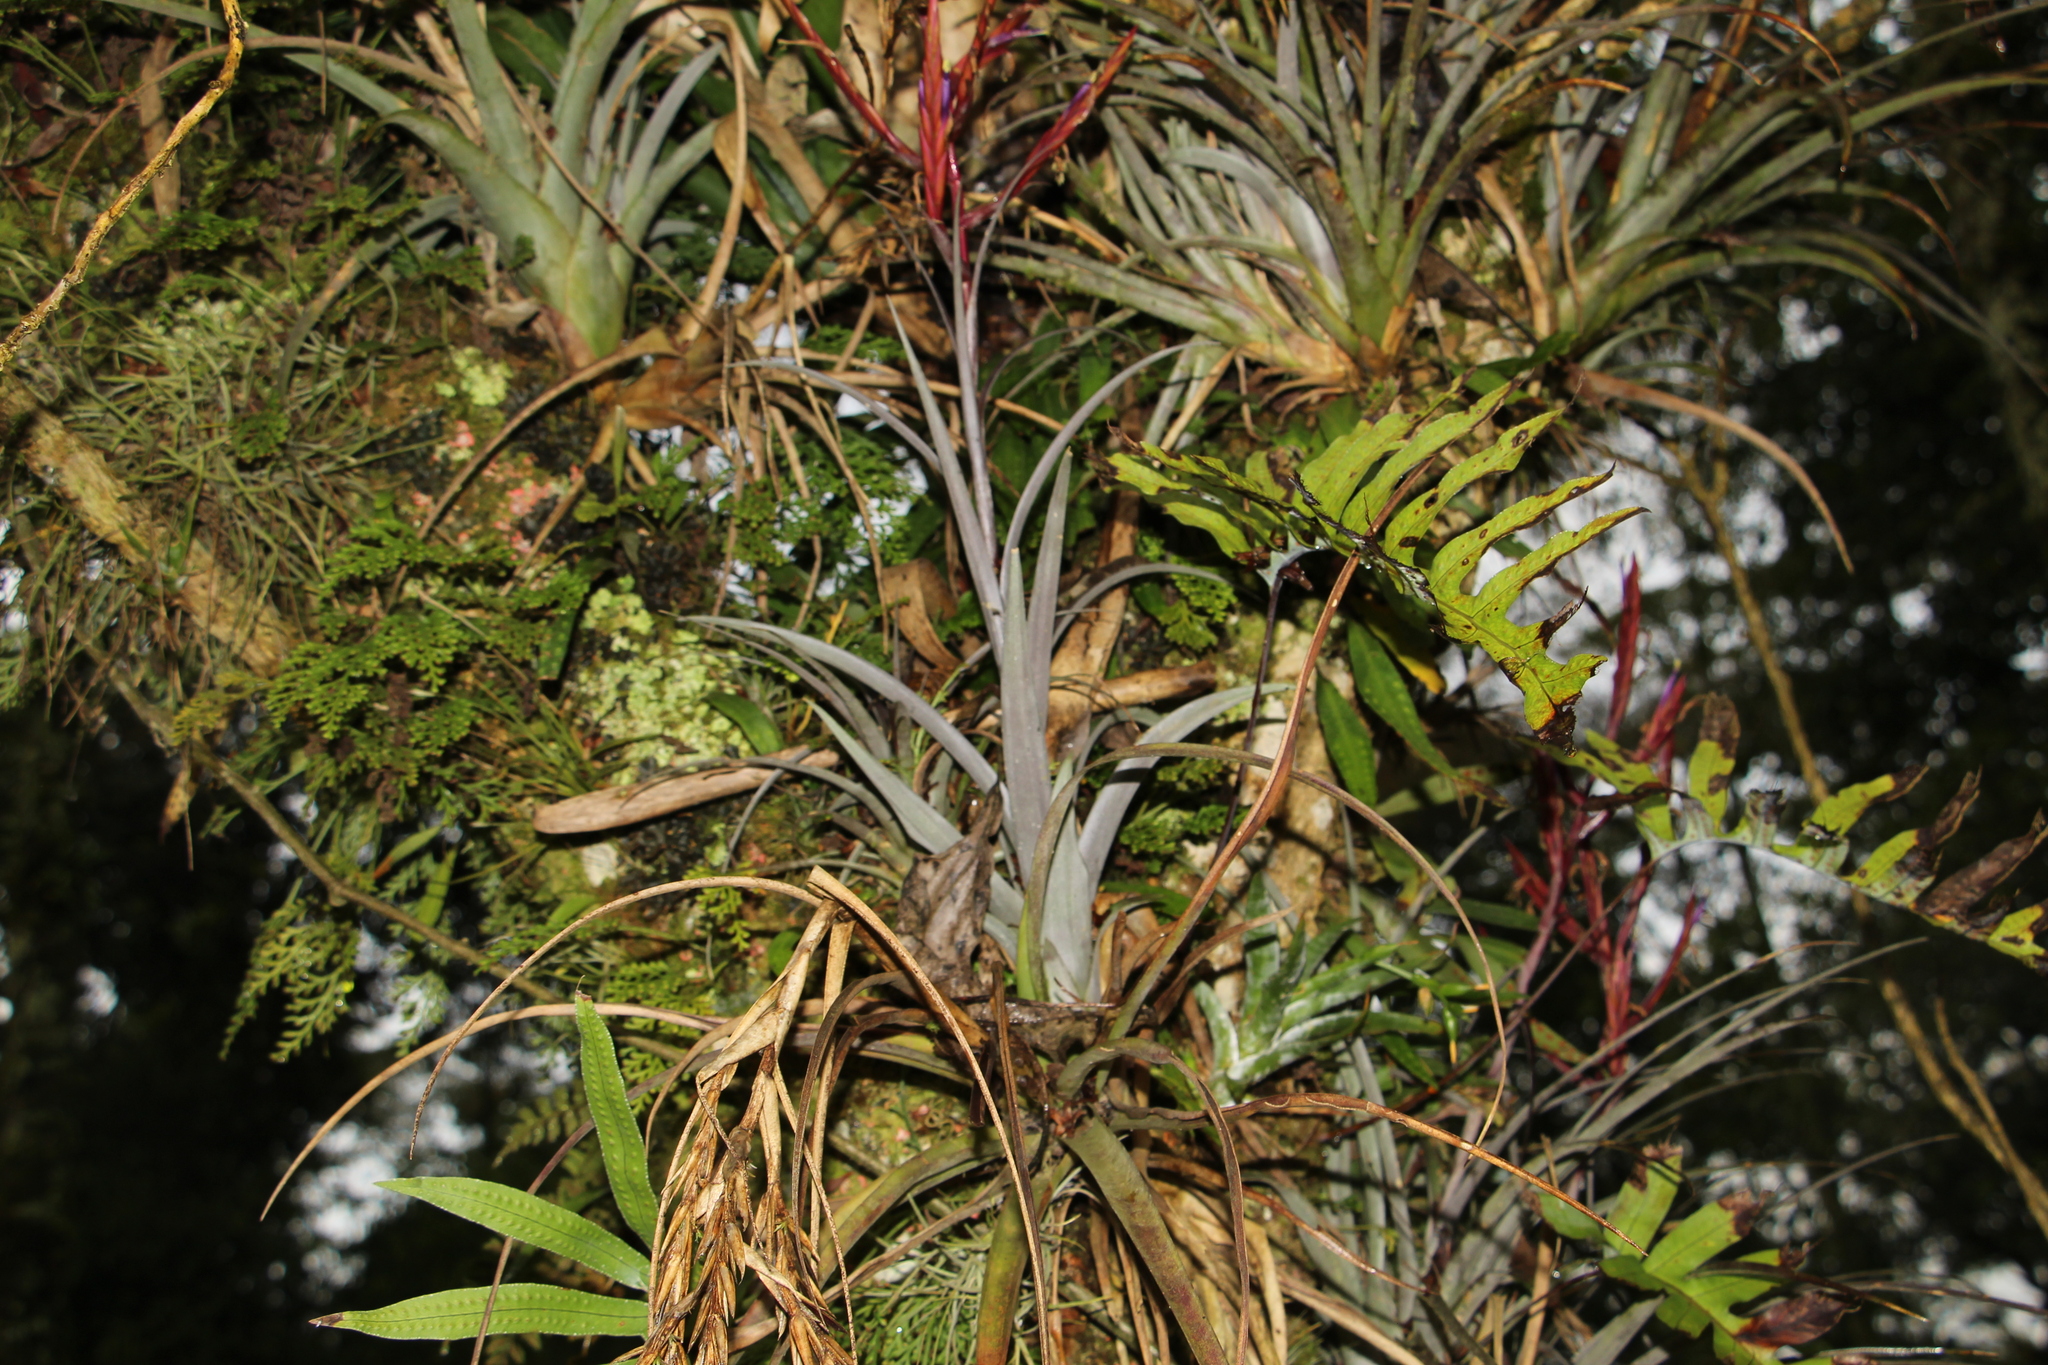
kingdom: Plantae
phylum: Tracheophyta
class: Liliopsida
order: Poales
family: Bromeliaceae
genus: Tillandsia
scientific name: Tillandsia variabilis
